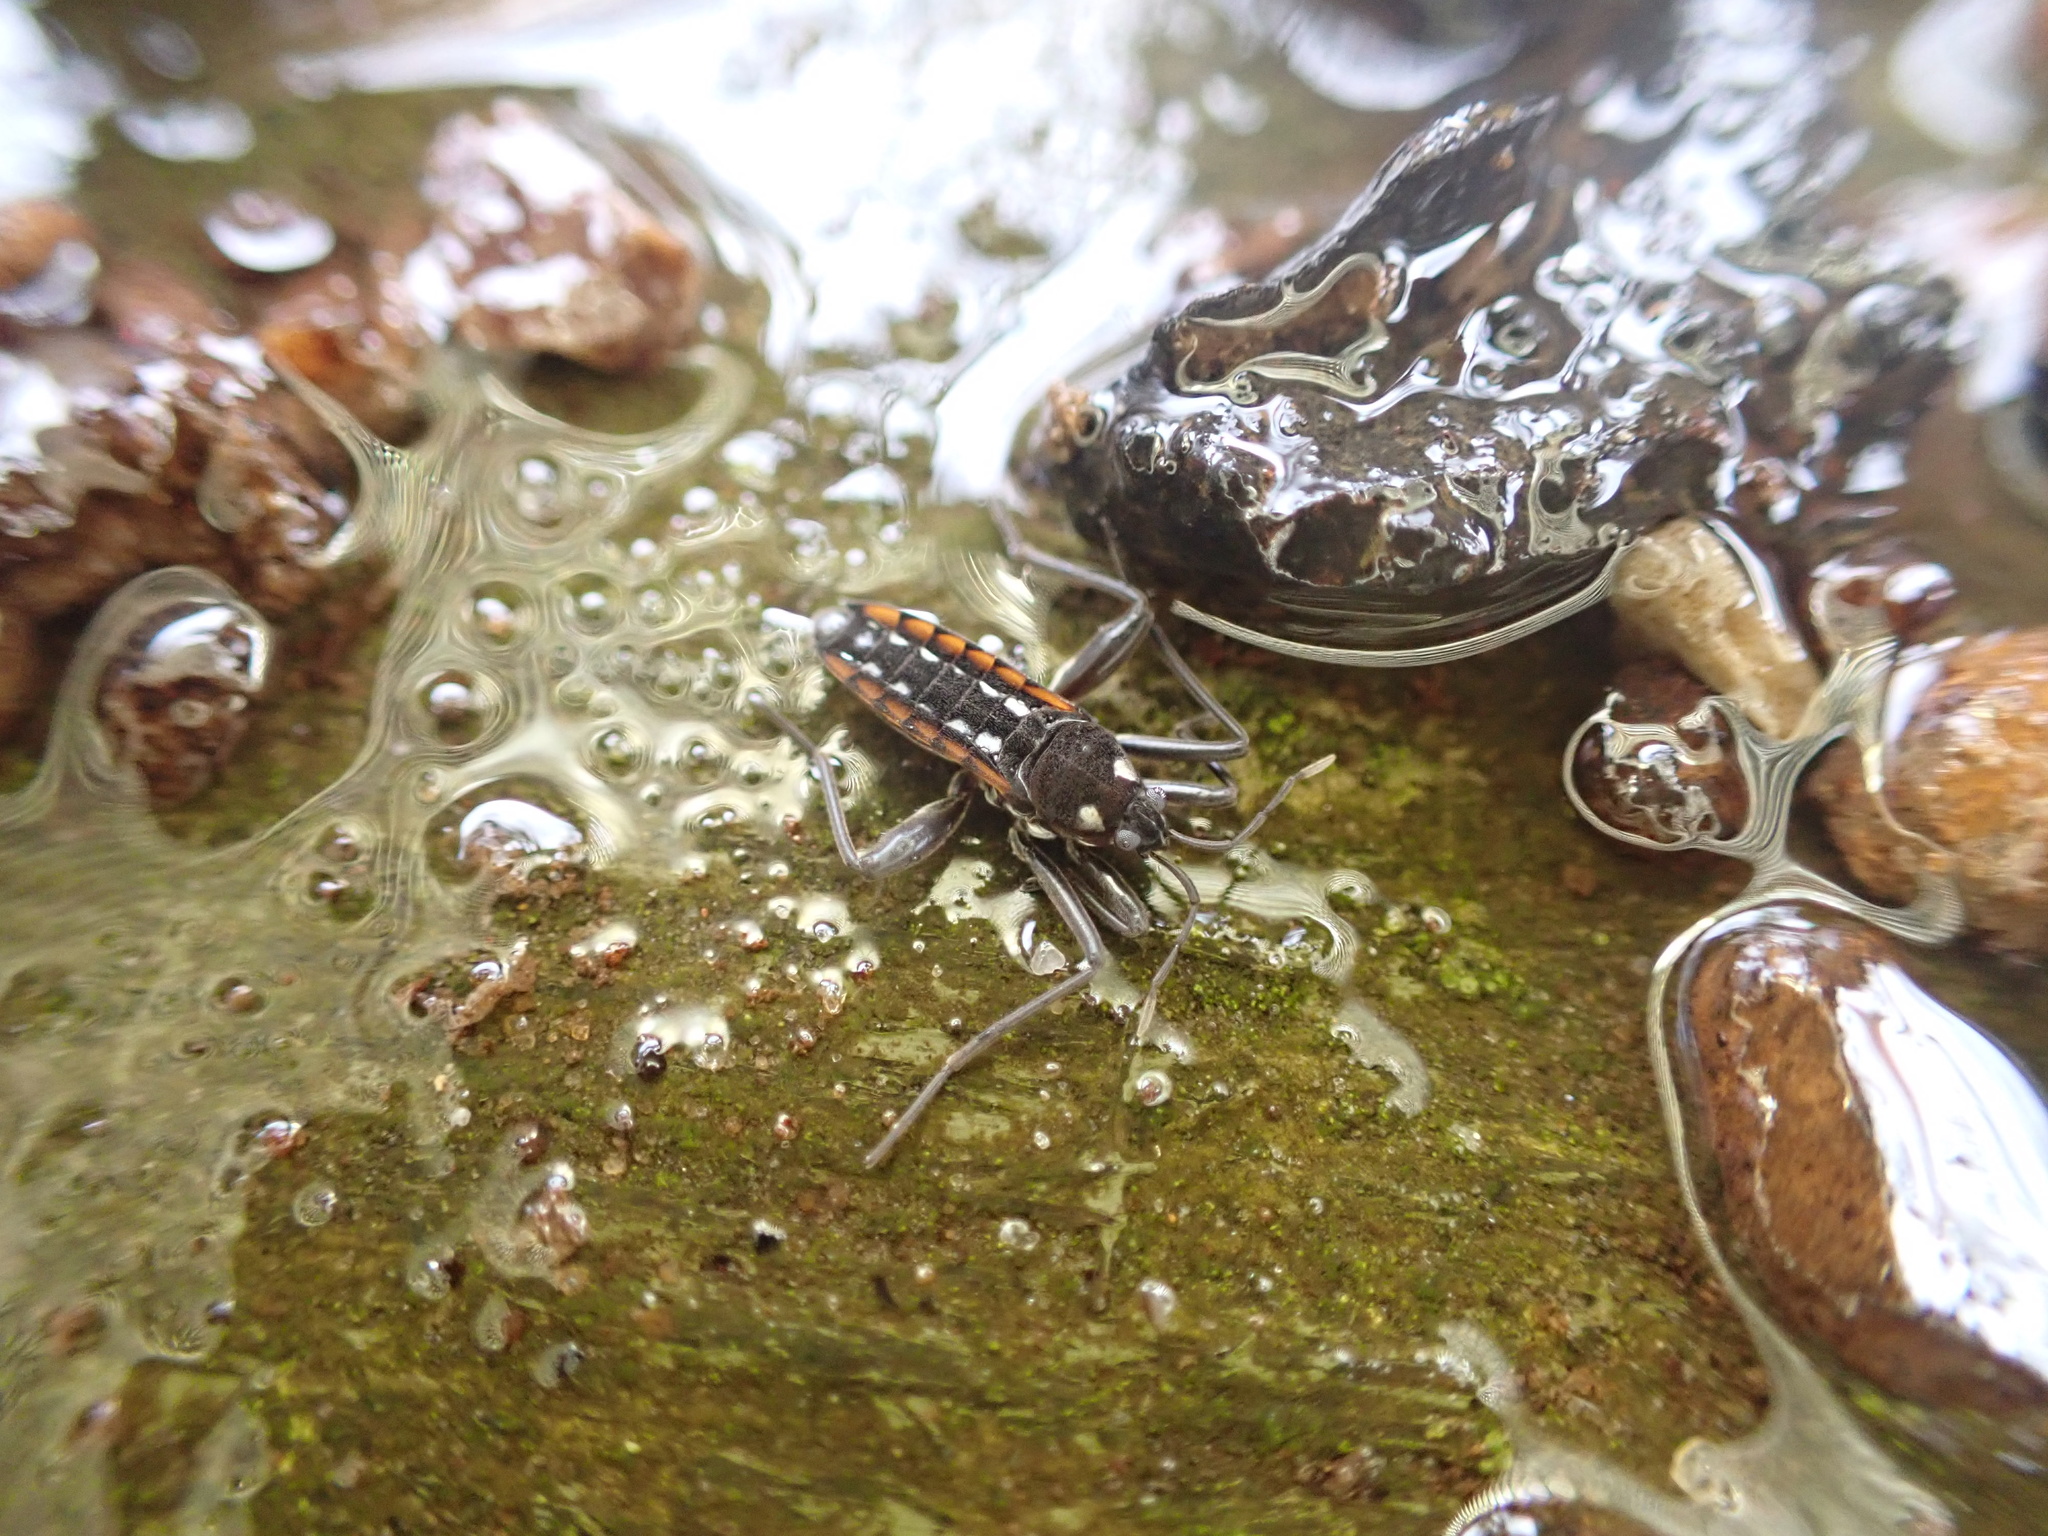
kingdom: Animalia
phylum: Arthropoda
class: Insecta
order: Hemiptera
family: Veliidae
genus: Velia
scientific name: Velia caprai
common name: Water cricket
